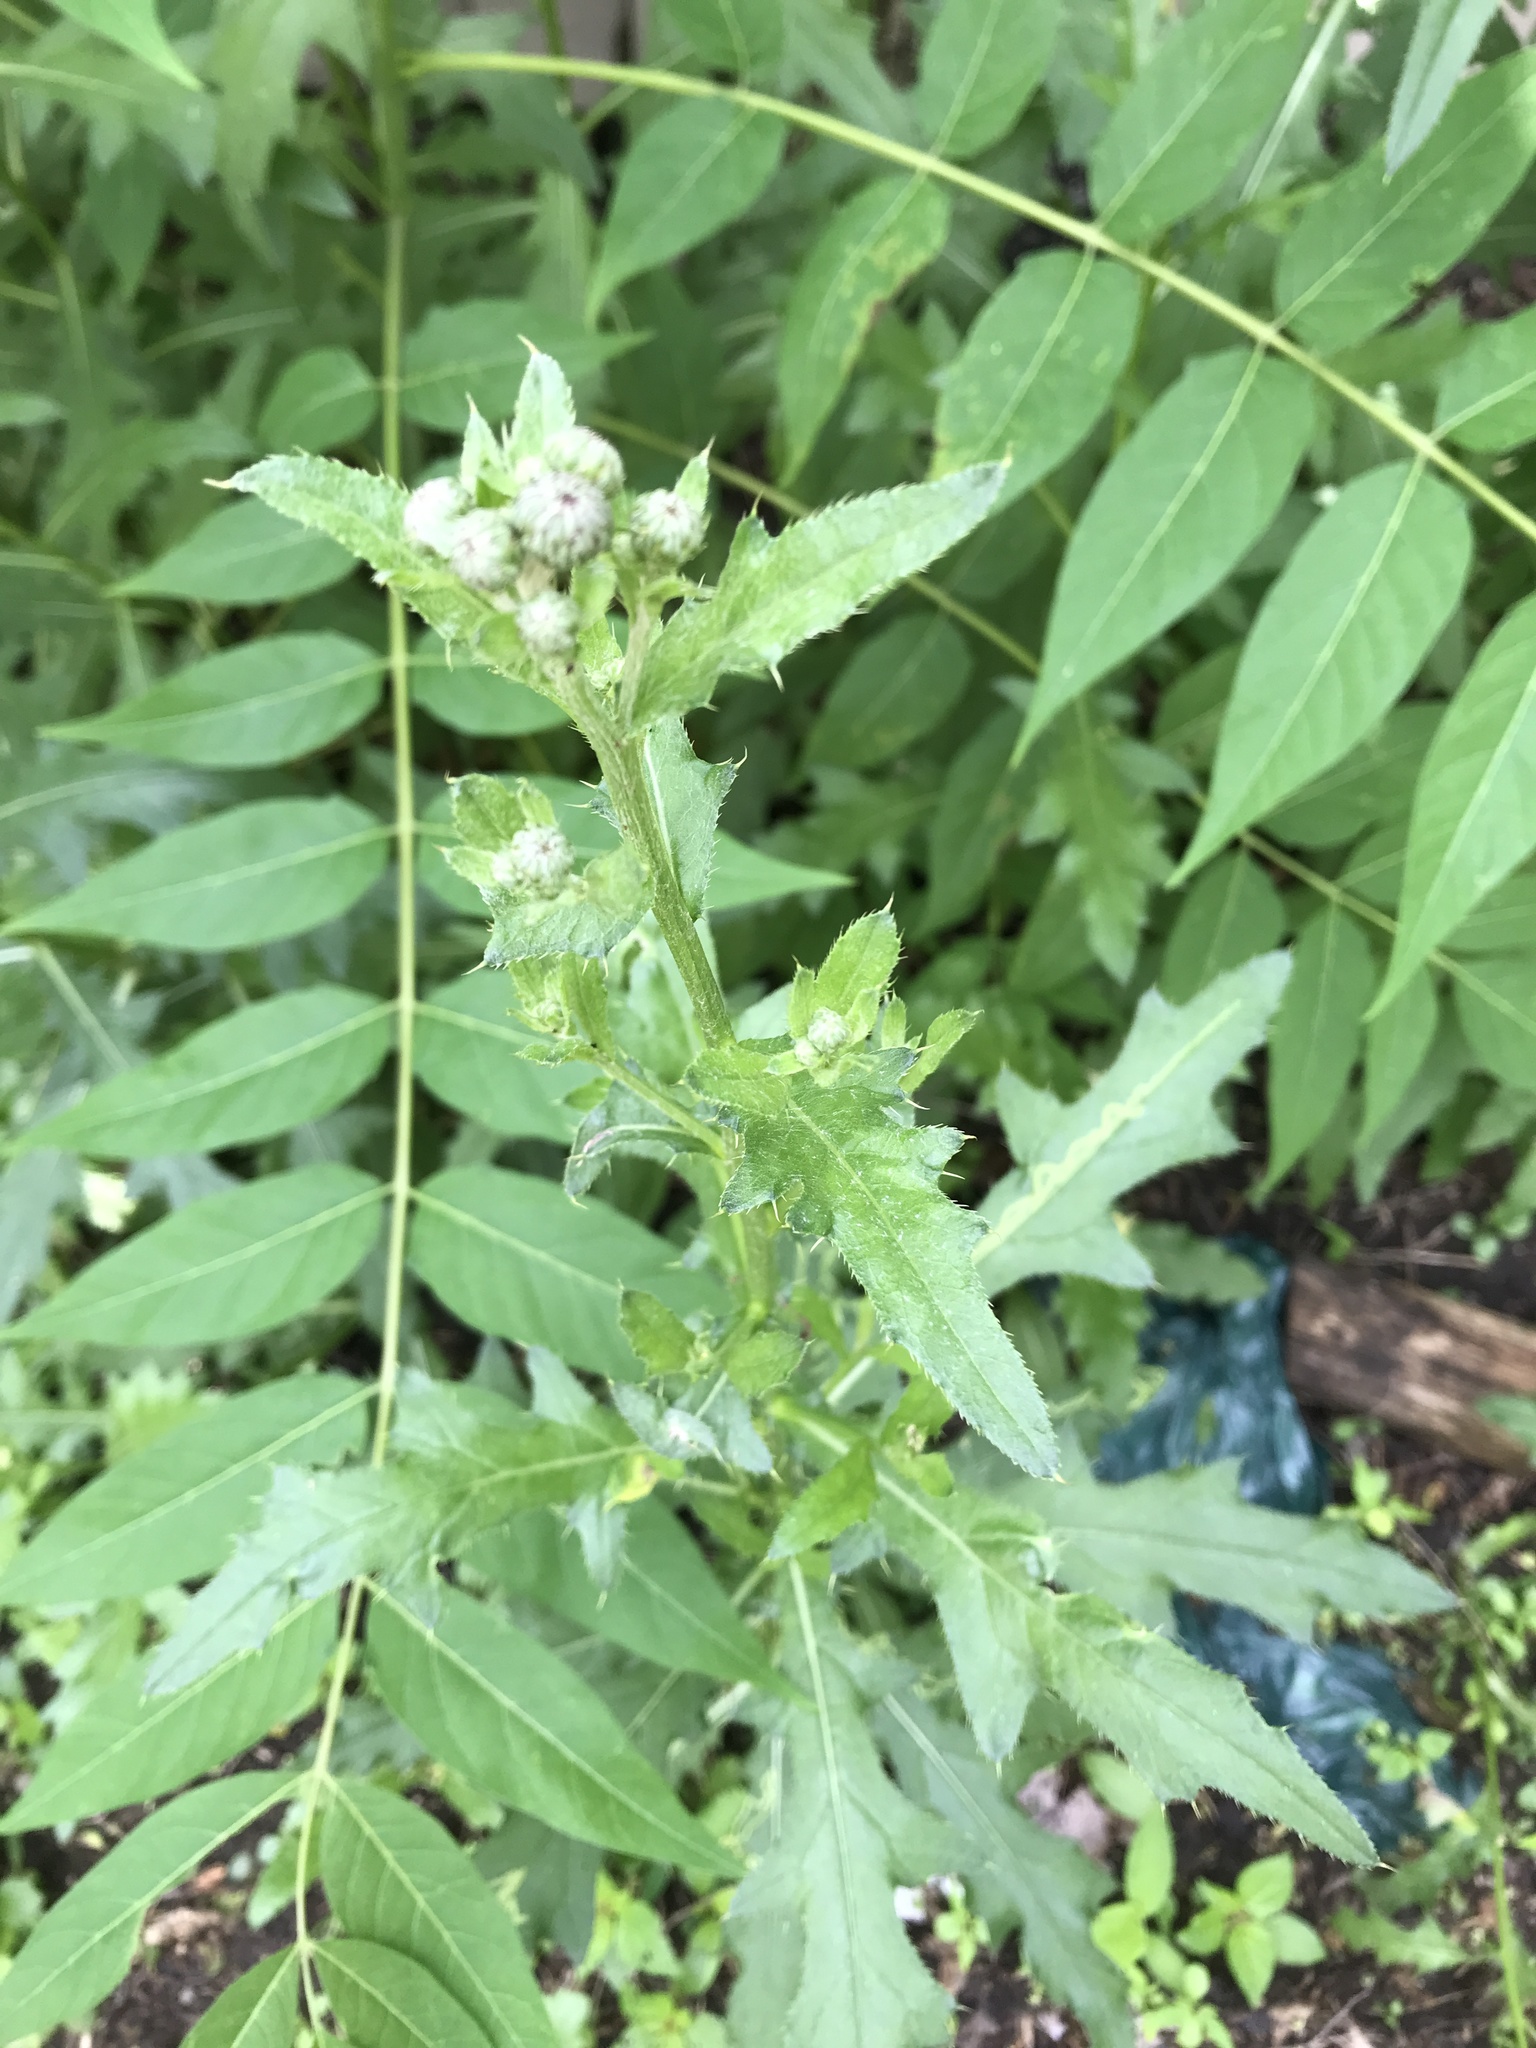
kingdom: Plantae
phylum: Tracheophyta
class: Magnoliopsida
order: Asterales
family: Asteraceae
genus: Cirsium
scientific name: Cirsium arvense
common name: Creeping thistle
